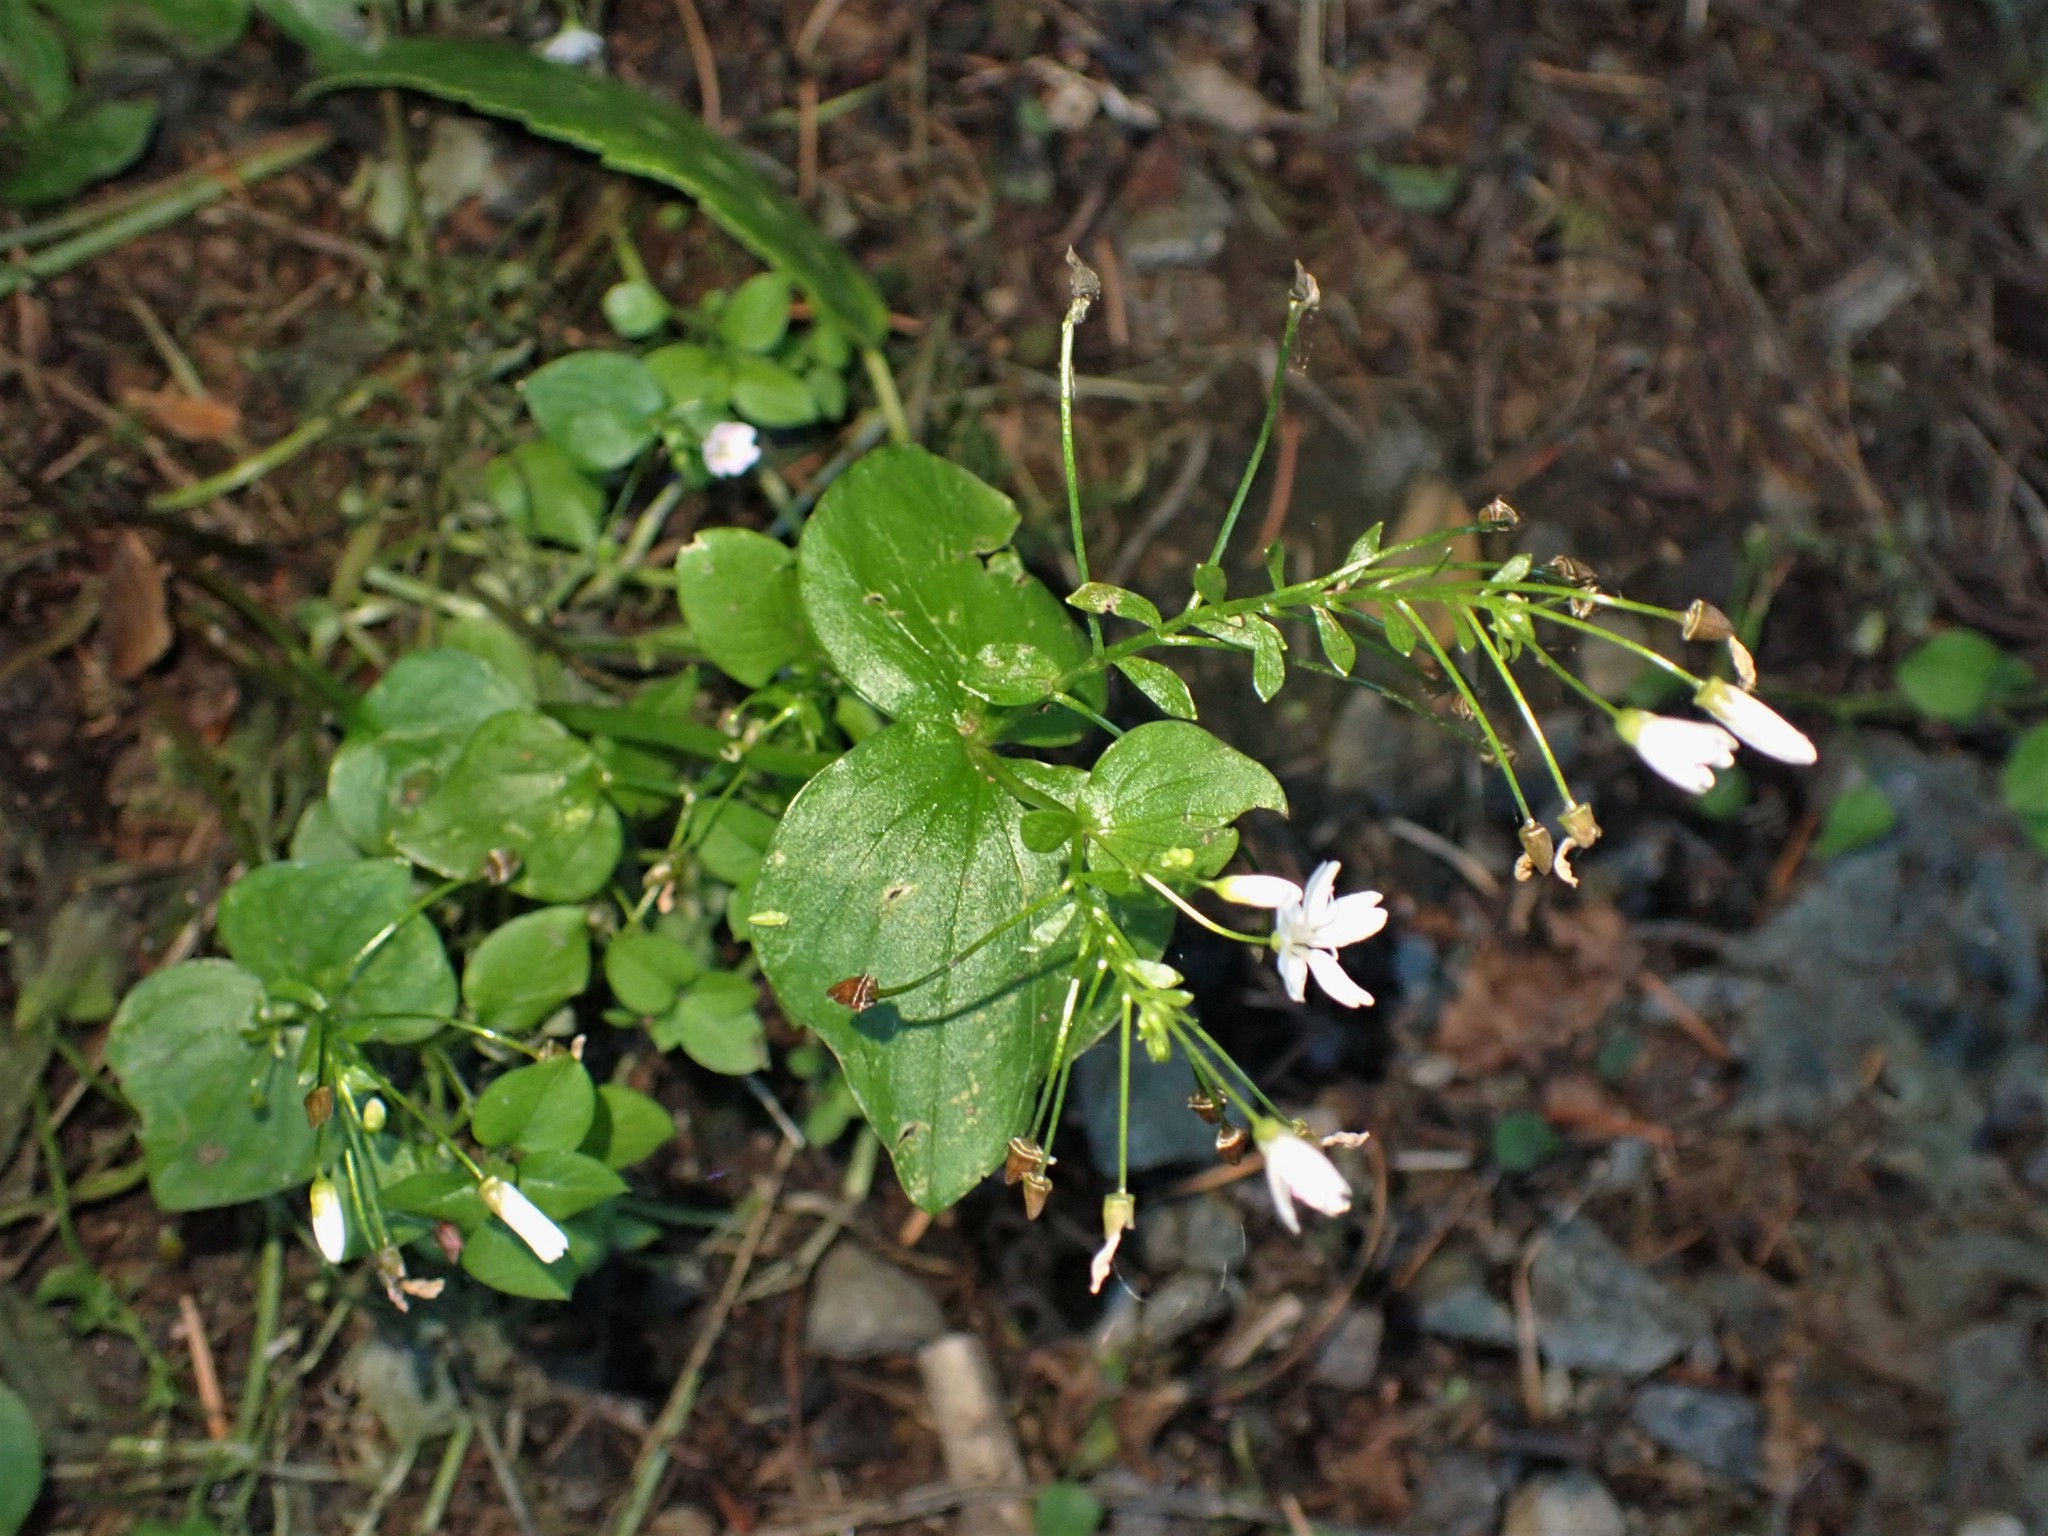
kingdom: Plantae
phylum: Tracheophyta
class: Magnoliopsida
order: Caryophyllales
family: Montiaceae
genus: Claytonia
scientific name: Claytonia sibirica
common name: Pink purslane
